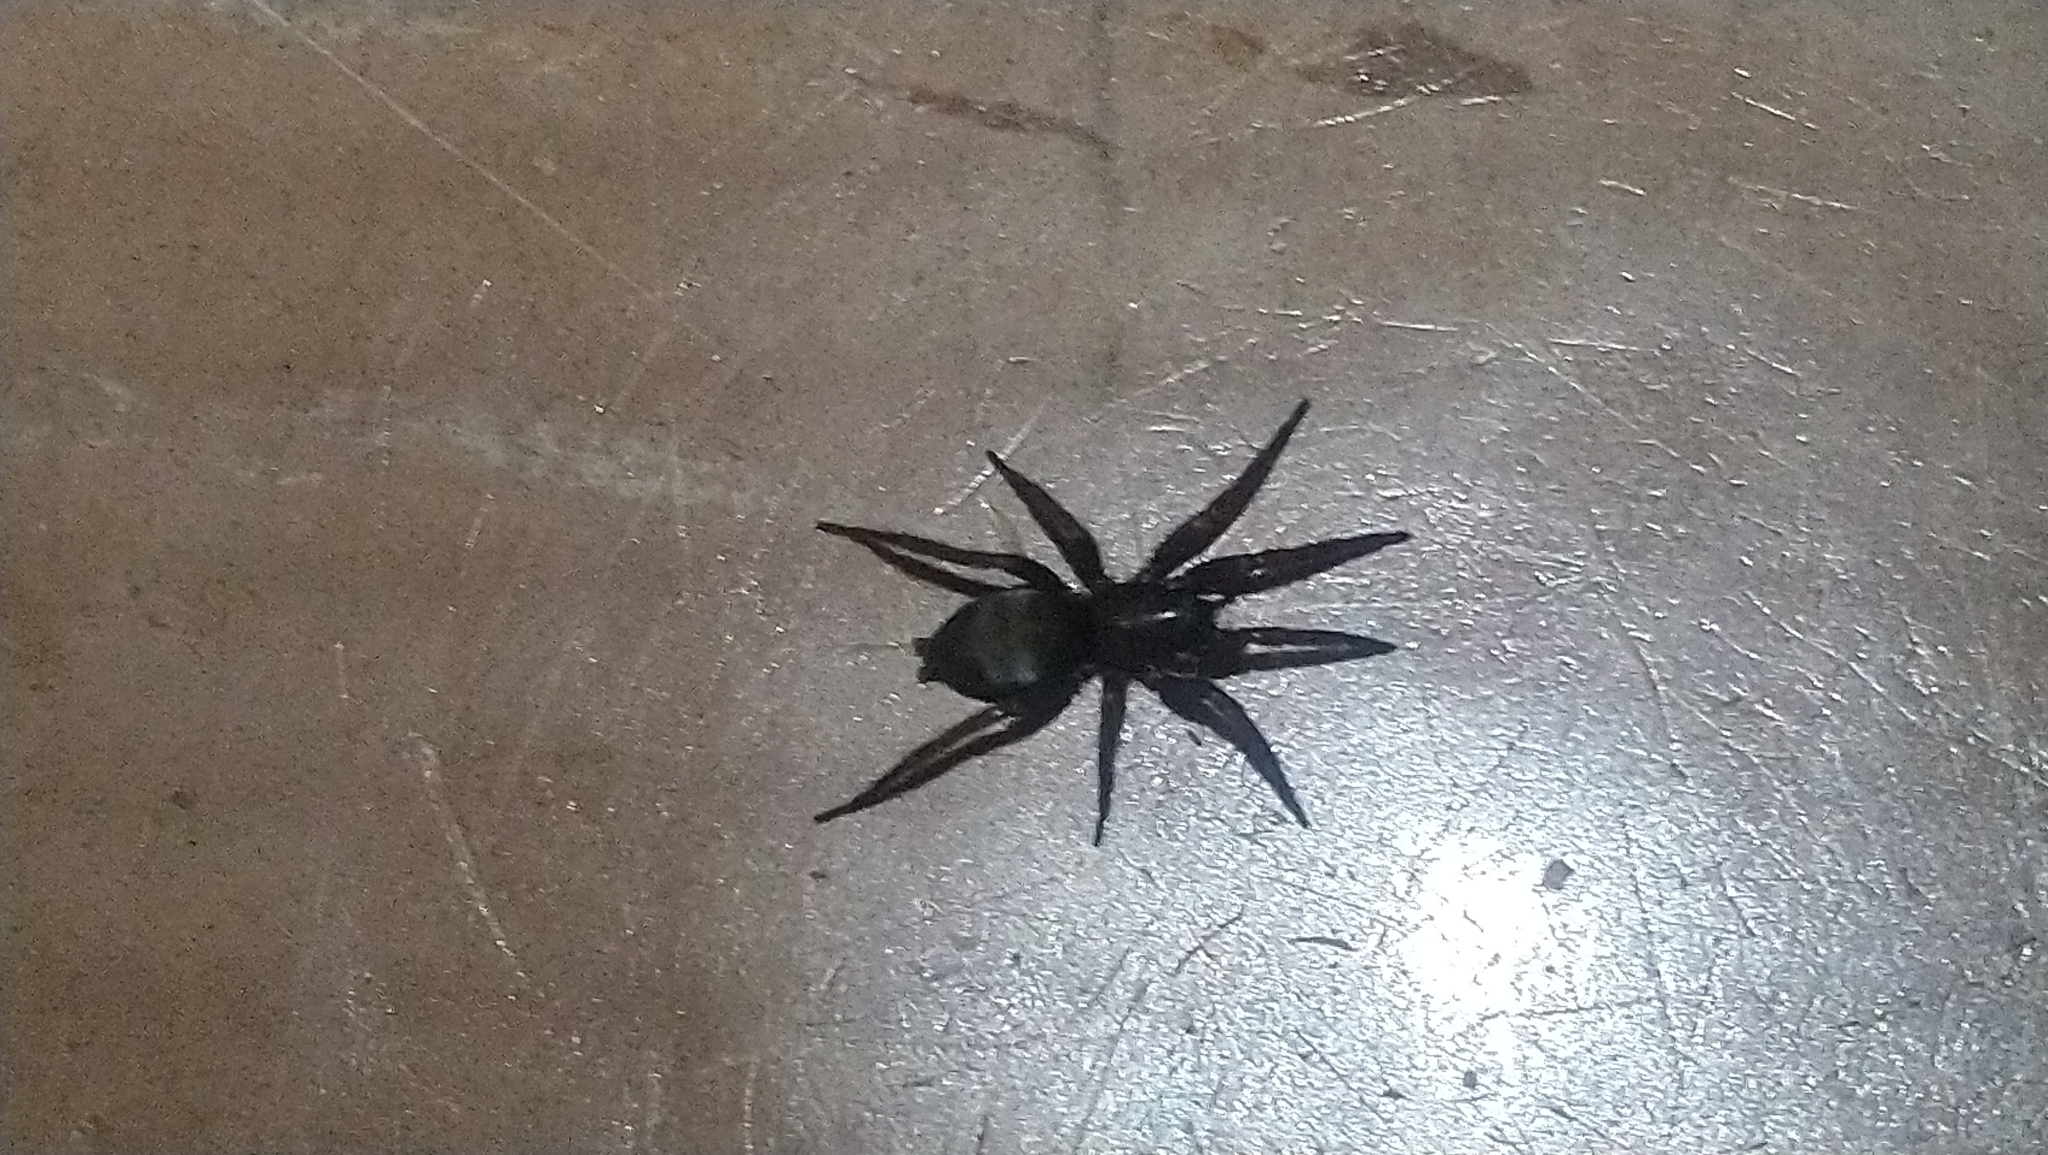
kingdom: Animalia
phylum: Arthropoda
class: Arachnida
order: Araneae
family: Gnaphosidae
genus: Scotophaeus
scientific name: Scotophaeus blackwalli
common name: Mouse spider
